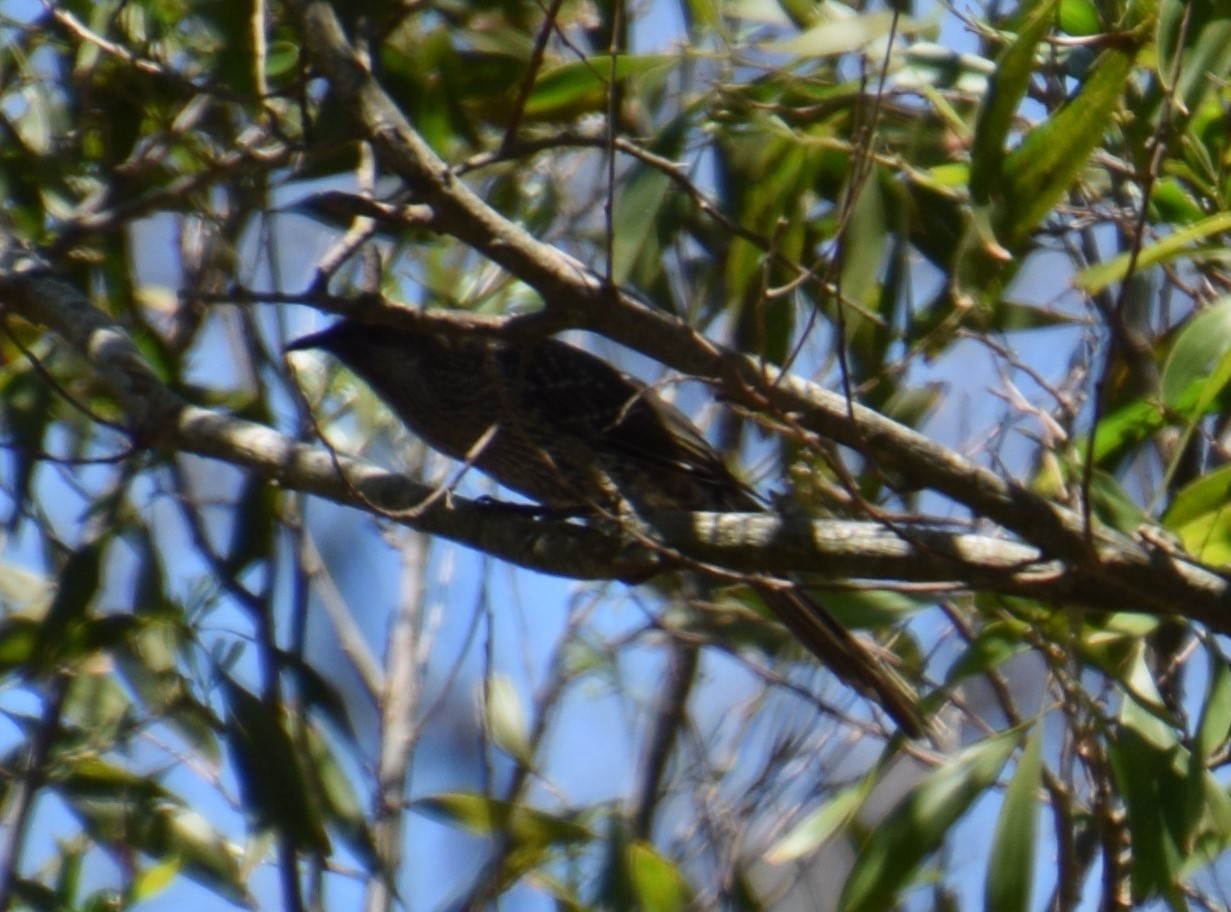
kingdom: Animalia
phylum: Chordata
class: Aves
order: Passeriformes
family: Meliphagidae
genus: Anthochaera
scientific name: Anthochaera chrysoptera
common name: Little wattlebird
